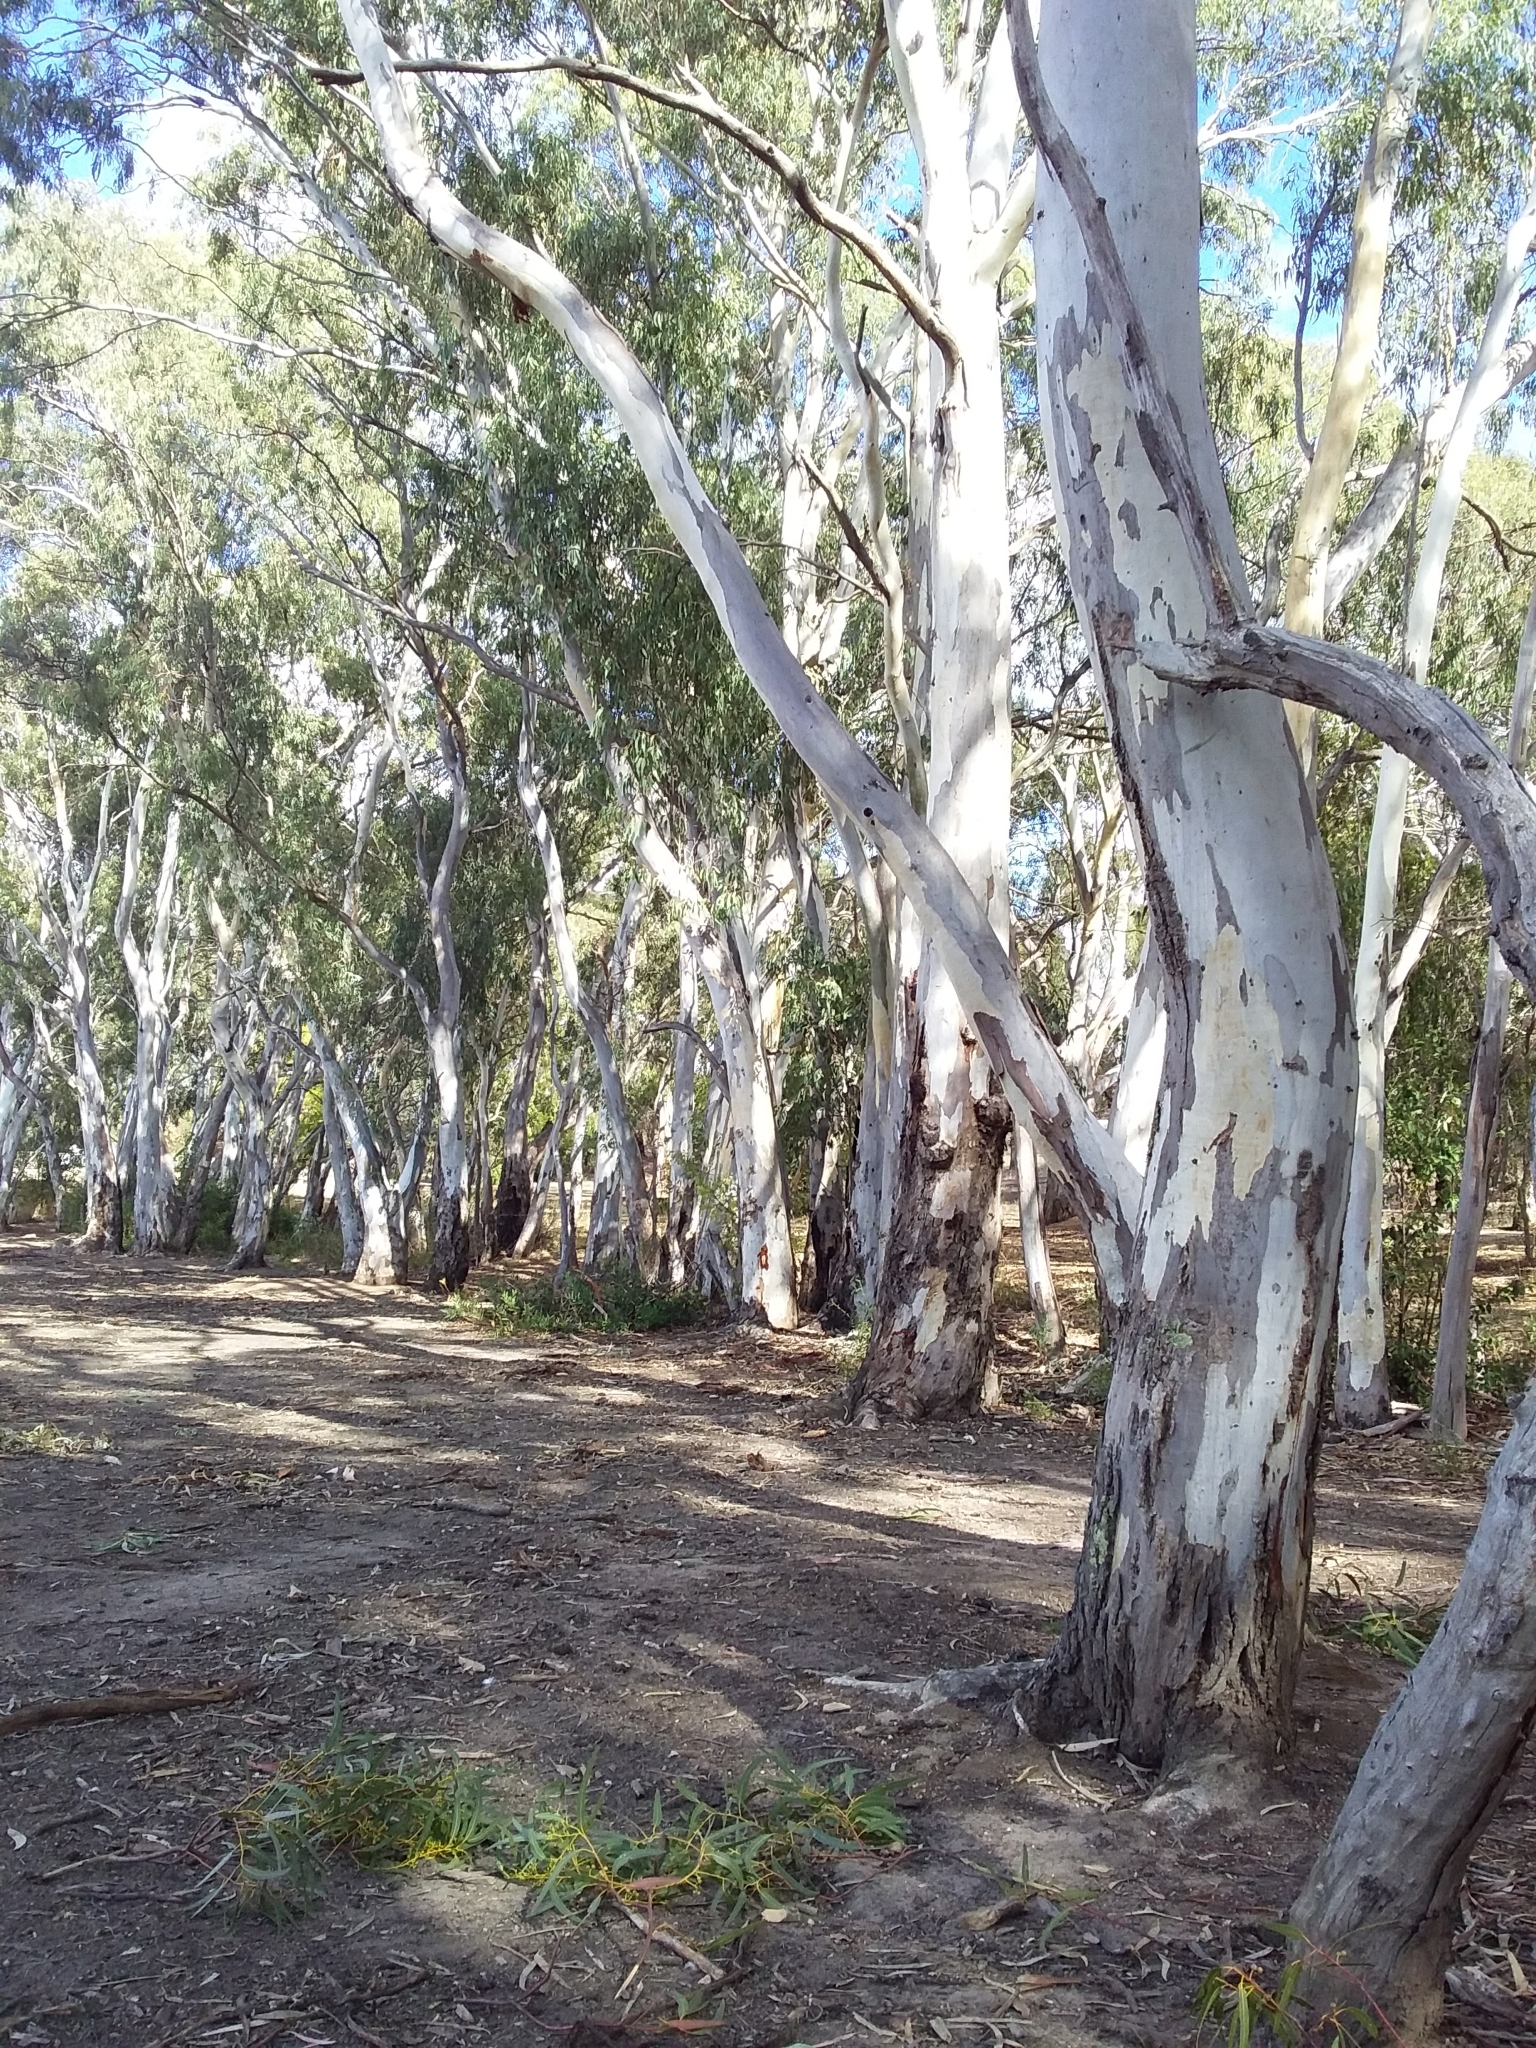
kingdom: Plantae
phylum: Tracheophyta
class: Magnoliopsida
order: Myrtales
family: Myrtaceae
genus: Eucalyptus
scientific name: Eucalyptus camaldulensis
